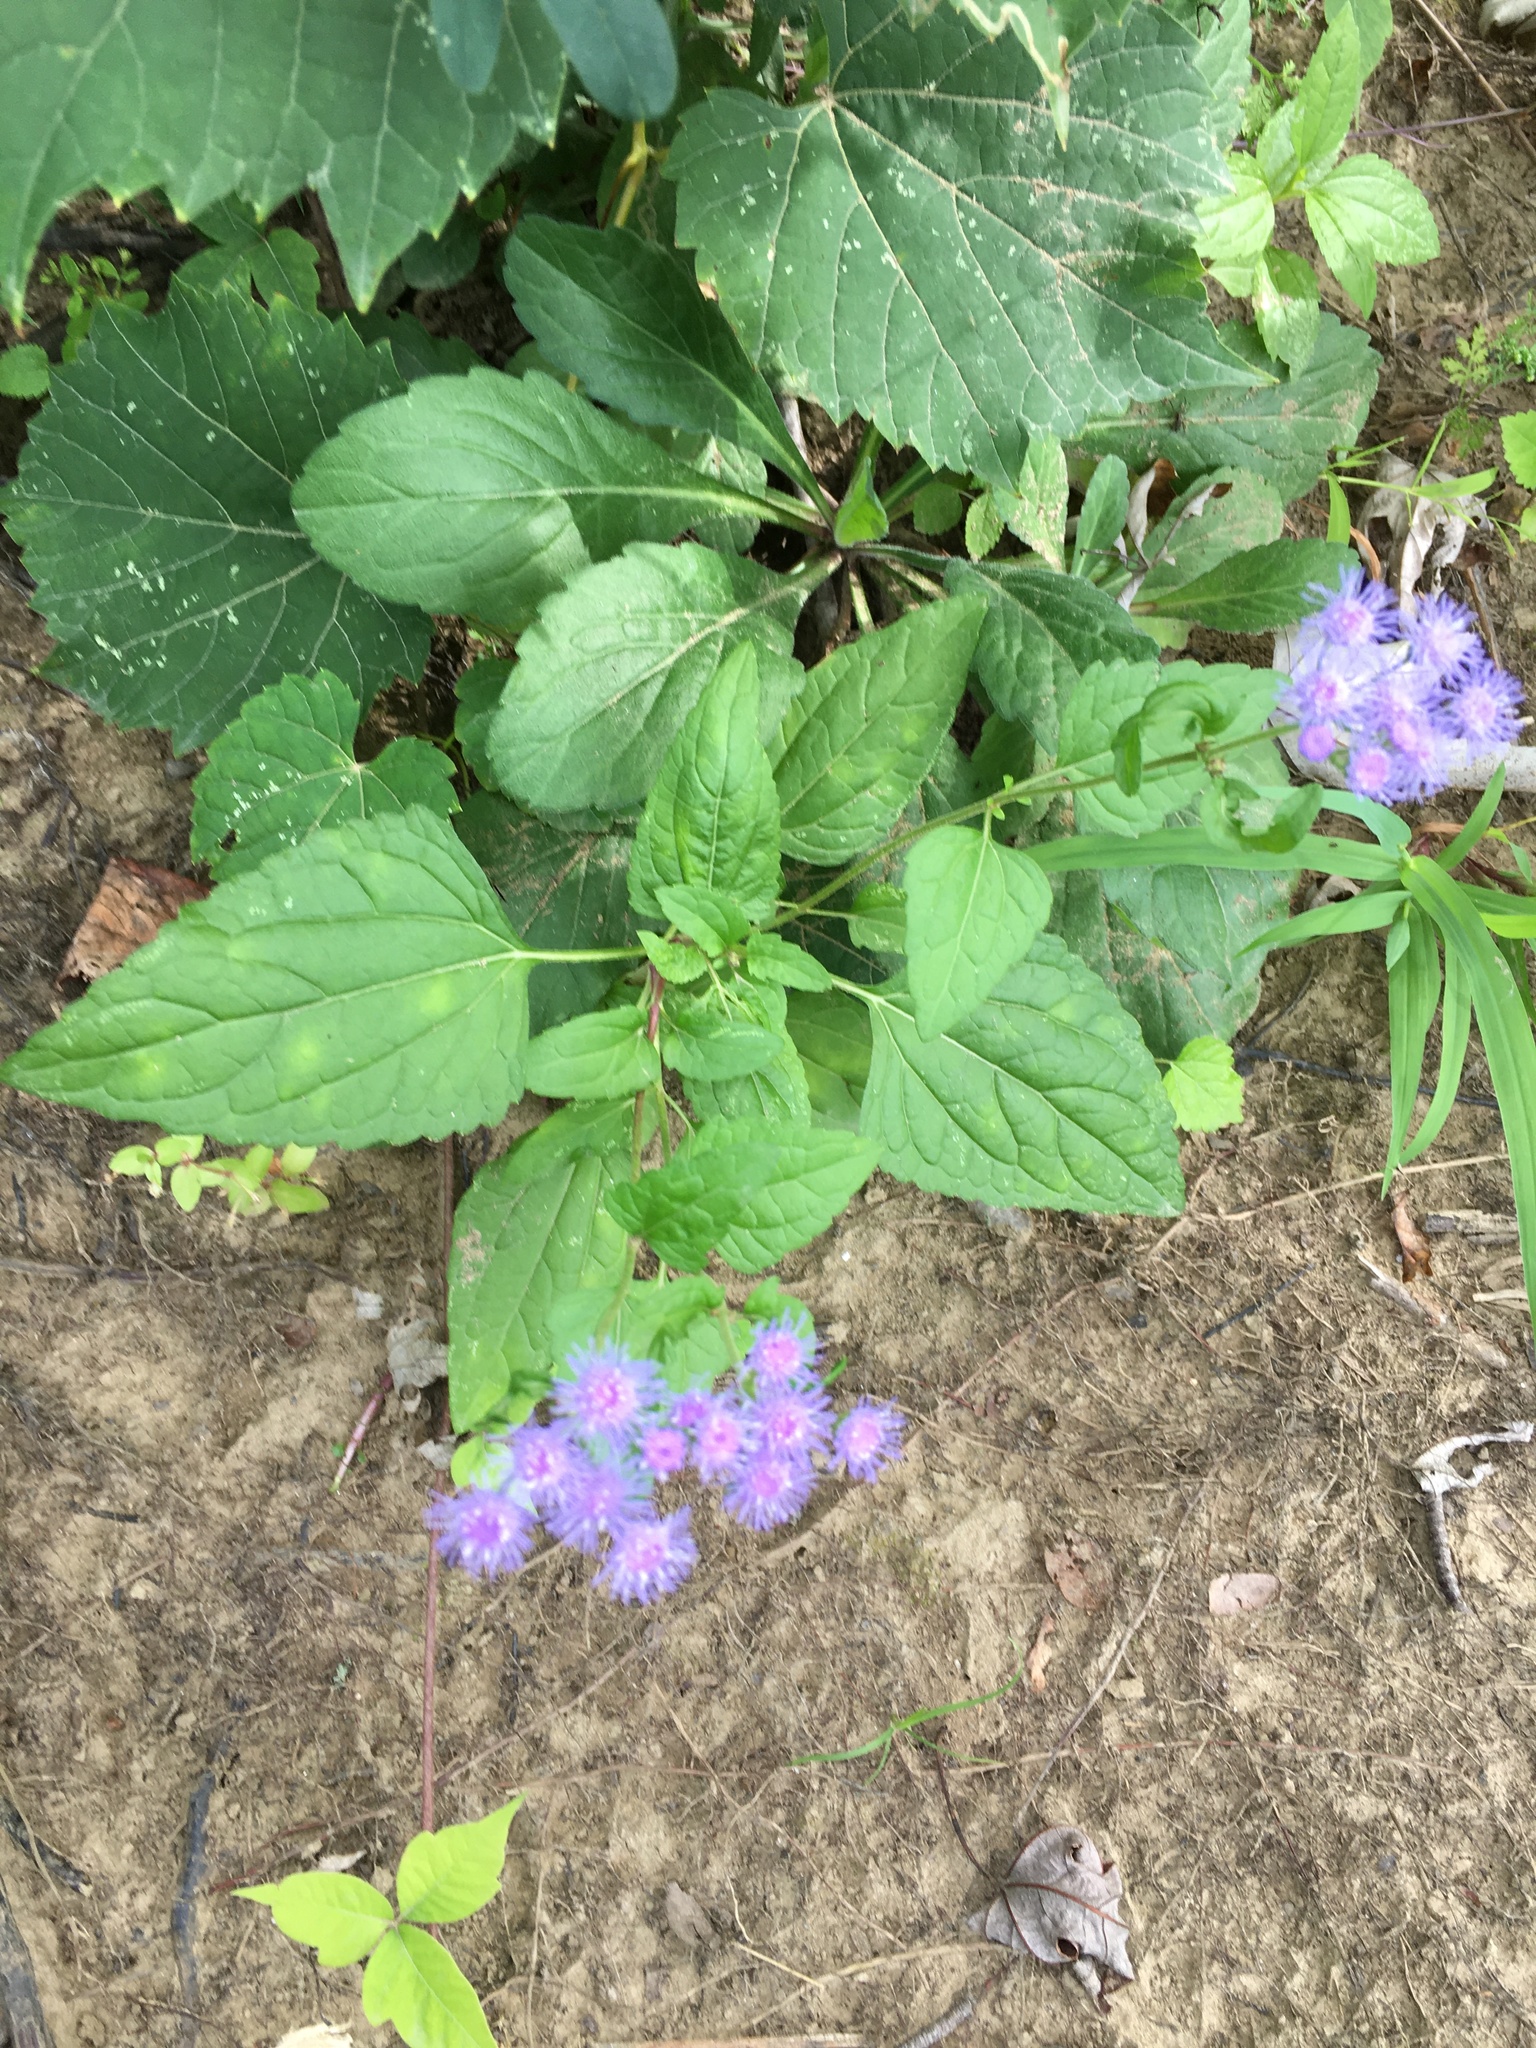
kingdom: Plantae
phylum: Tracheophyta
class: Magnoliopsida
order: Asterales
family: Asteraceae
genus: Conoclinium
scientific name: Conoclinium coelestinum
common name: Blue mistflower
